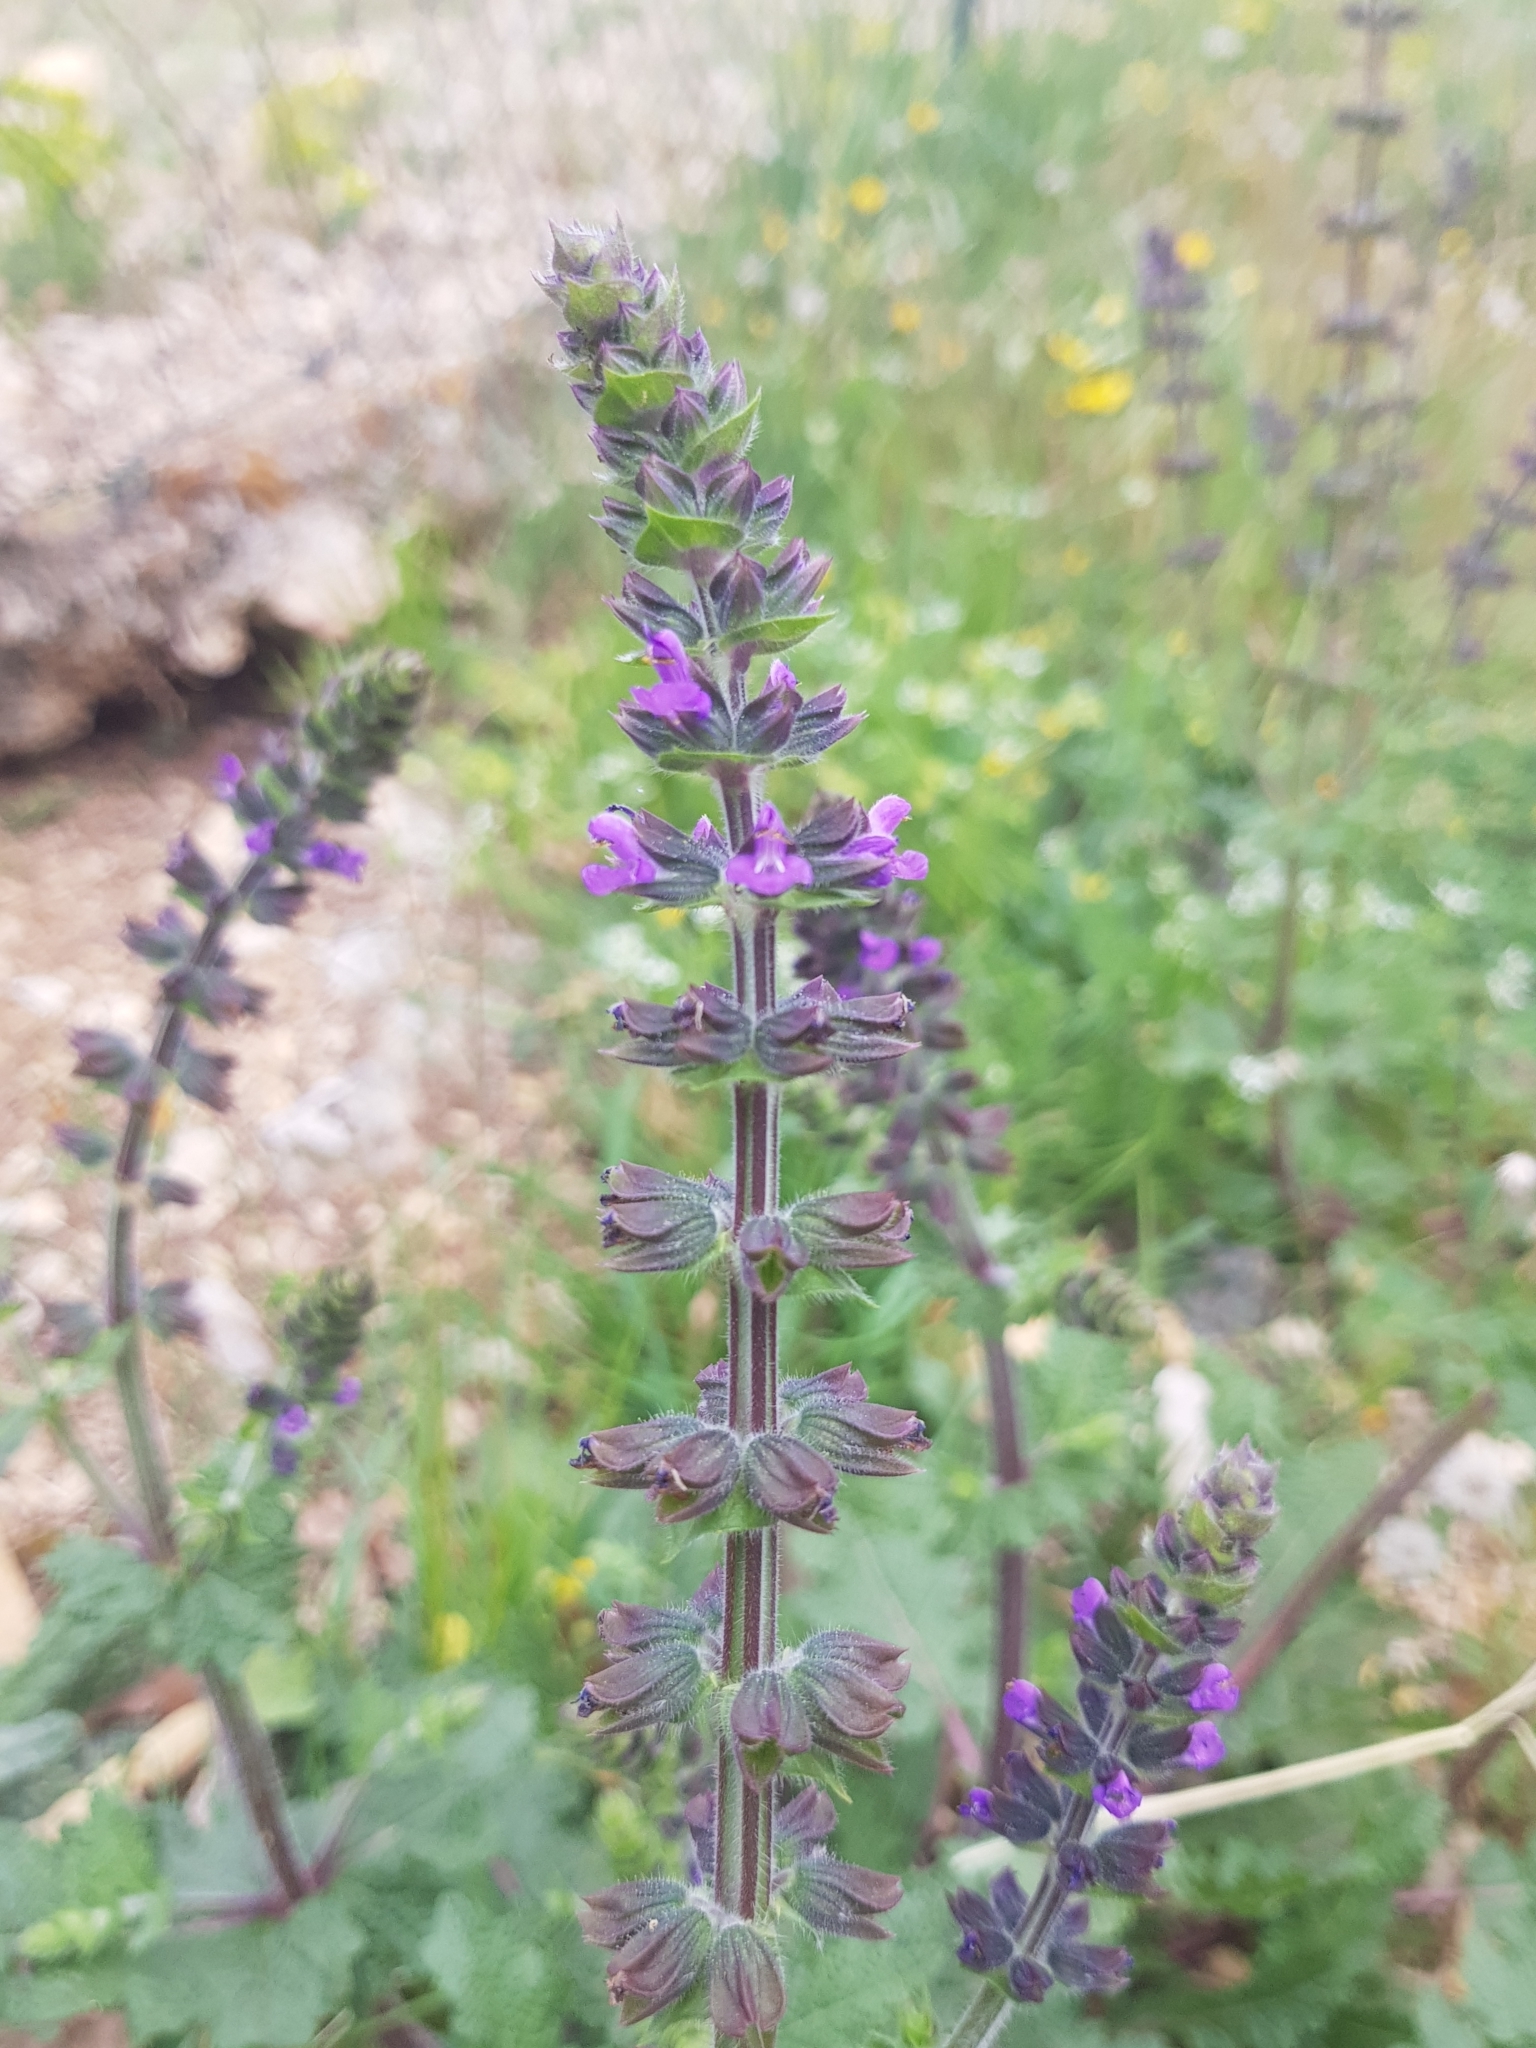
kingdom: Plantae
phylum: Tracheophyta
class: Magnoliopsida
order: Lamiales
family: Lamiaceae
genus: Salvia
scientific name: Salvia verbenaca
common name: Wild clary
